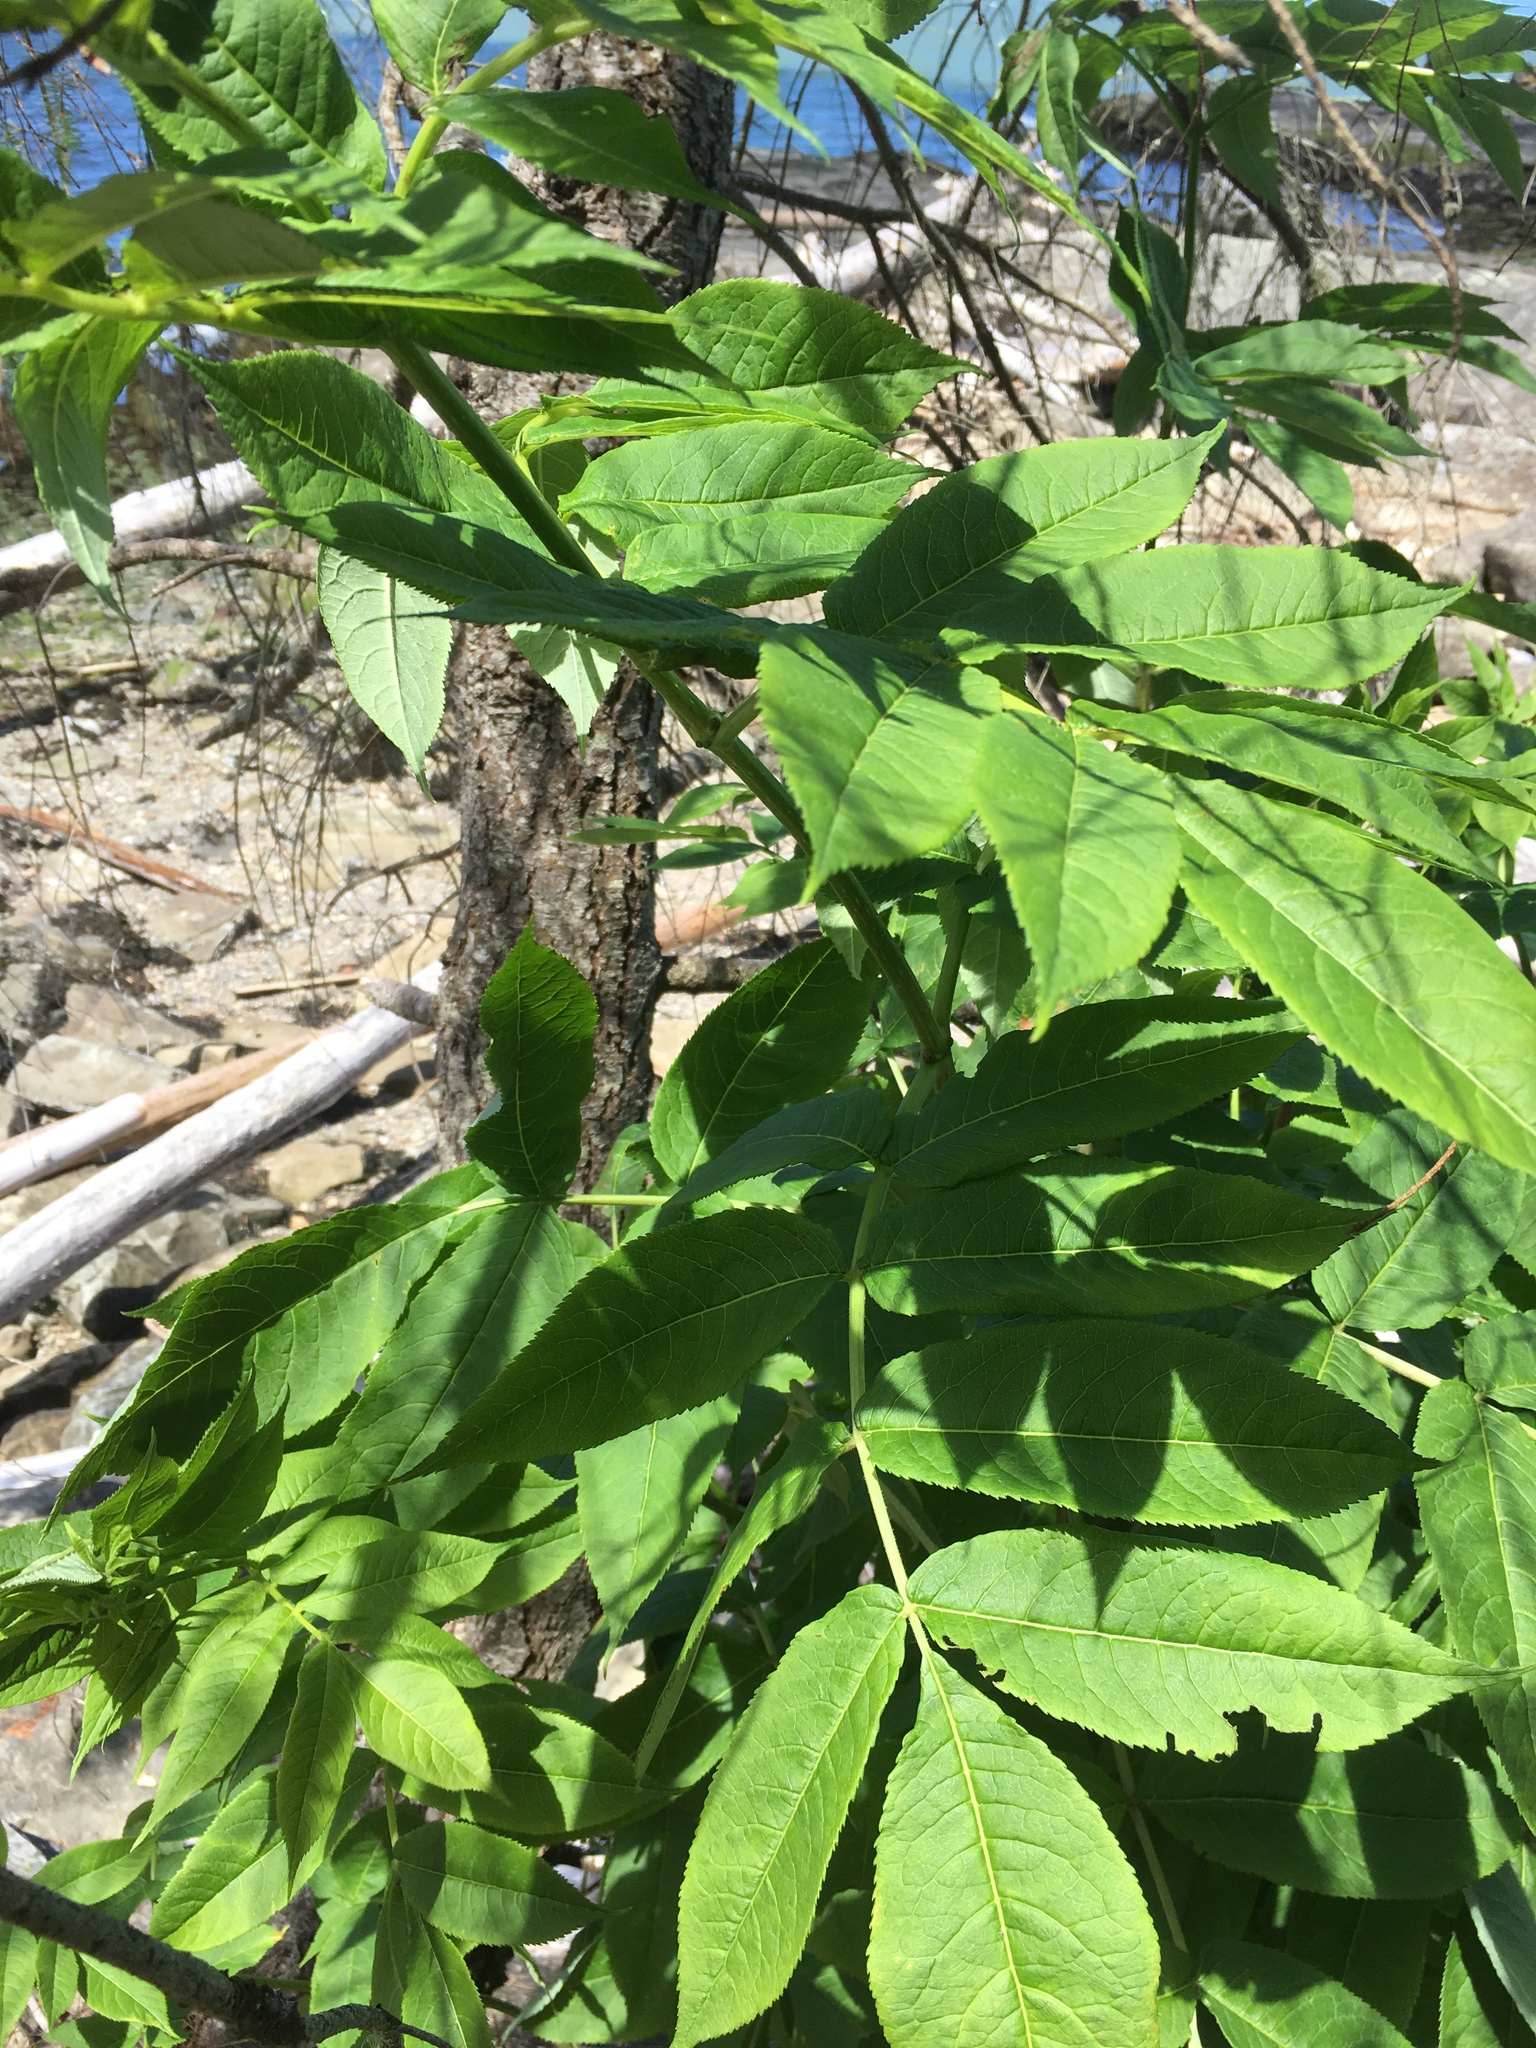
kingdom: Plantae
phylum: Tracheophyta
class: Magnoliopsida
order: Dipsacales
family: Viburnaceae
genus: Sambucus
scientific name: Sambucus racemosa
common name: Red-berried elder
